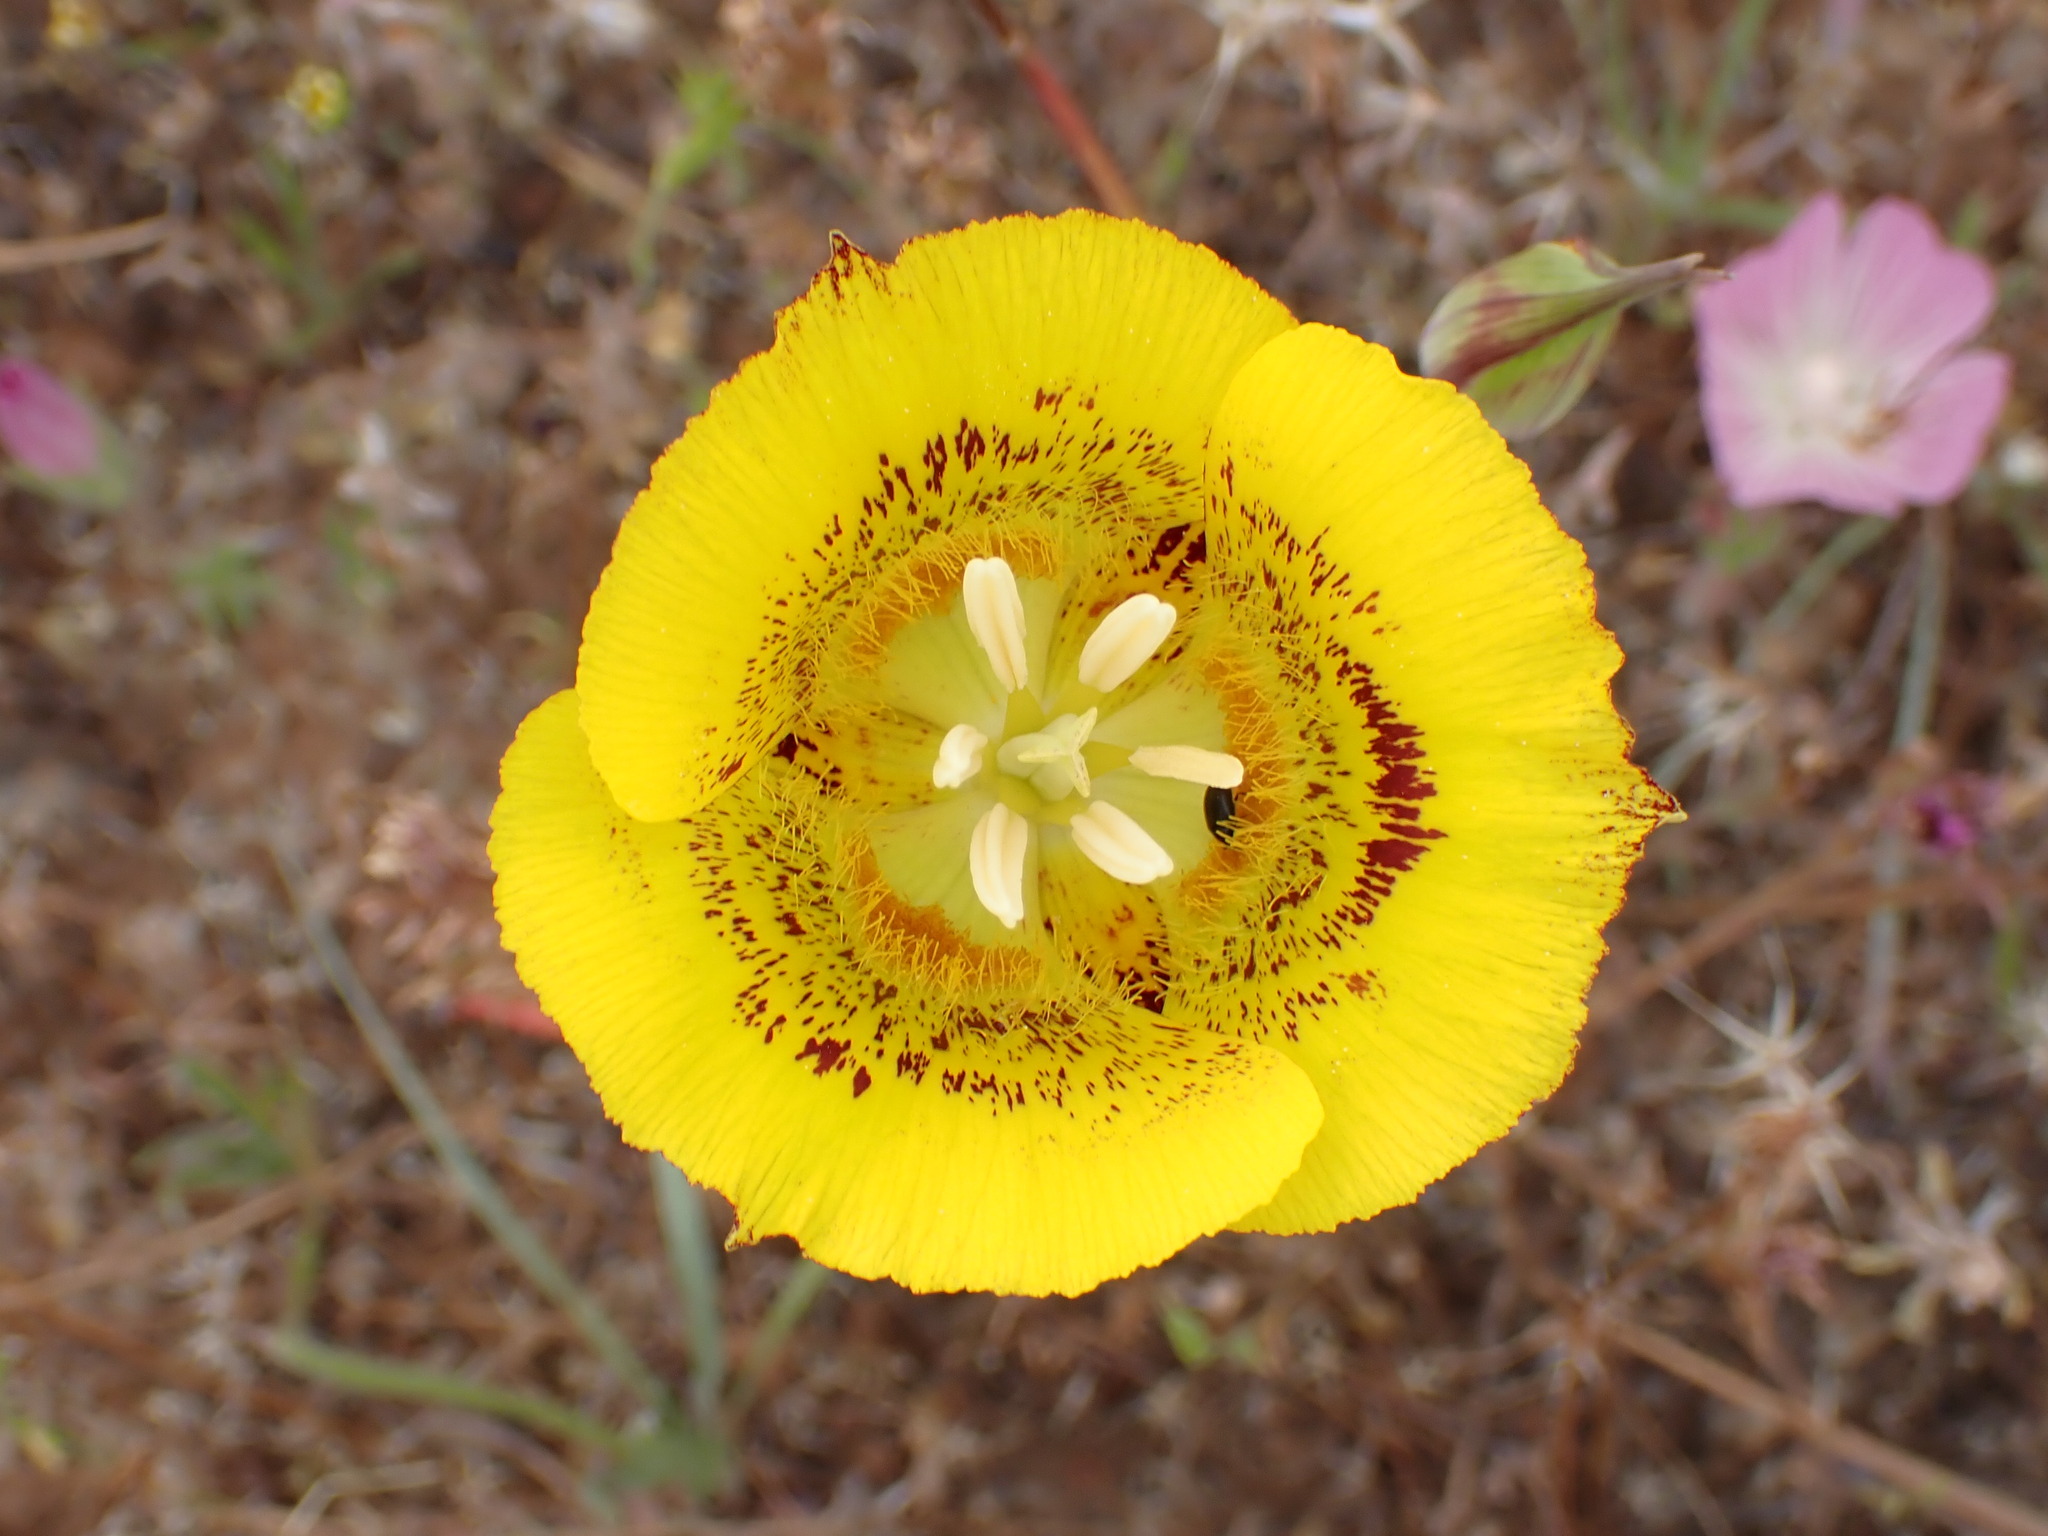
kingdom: Plantae
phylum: Tracheophyta
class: Liliopsida
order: Liliales
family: Liliaceae
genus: Calochortus
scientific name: Calochortus luteus
